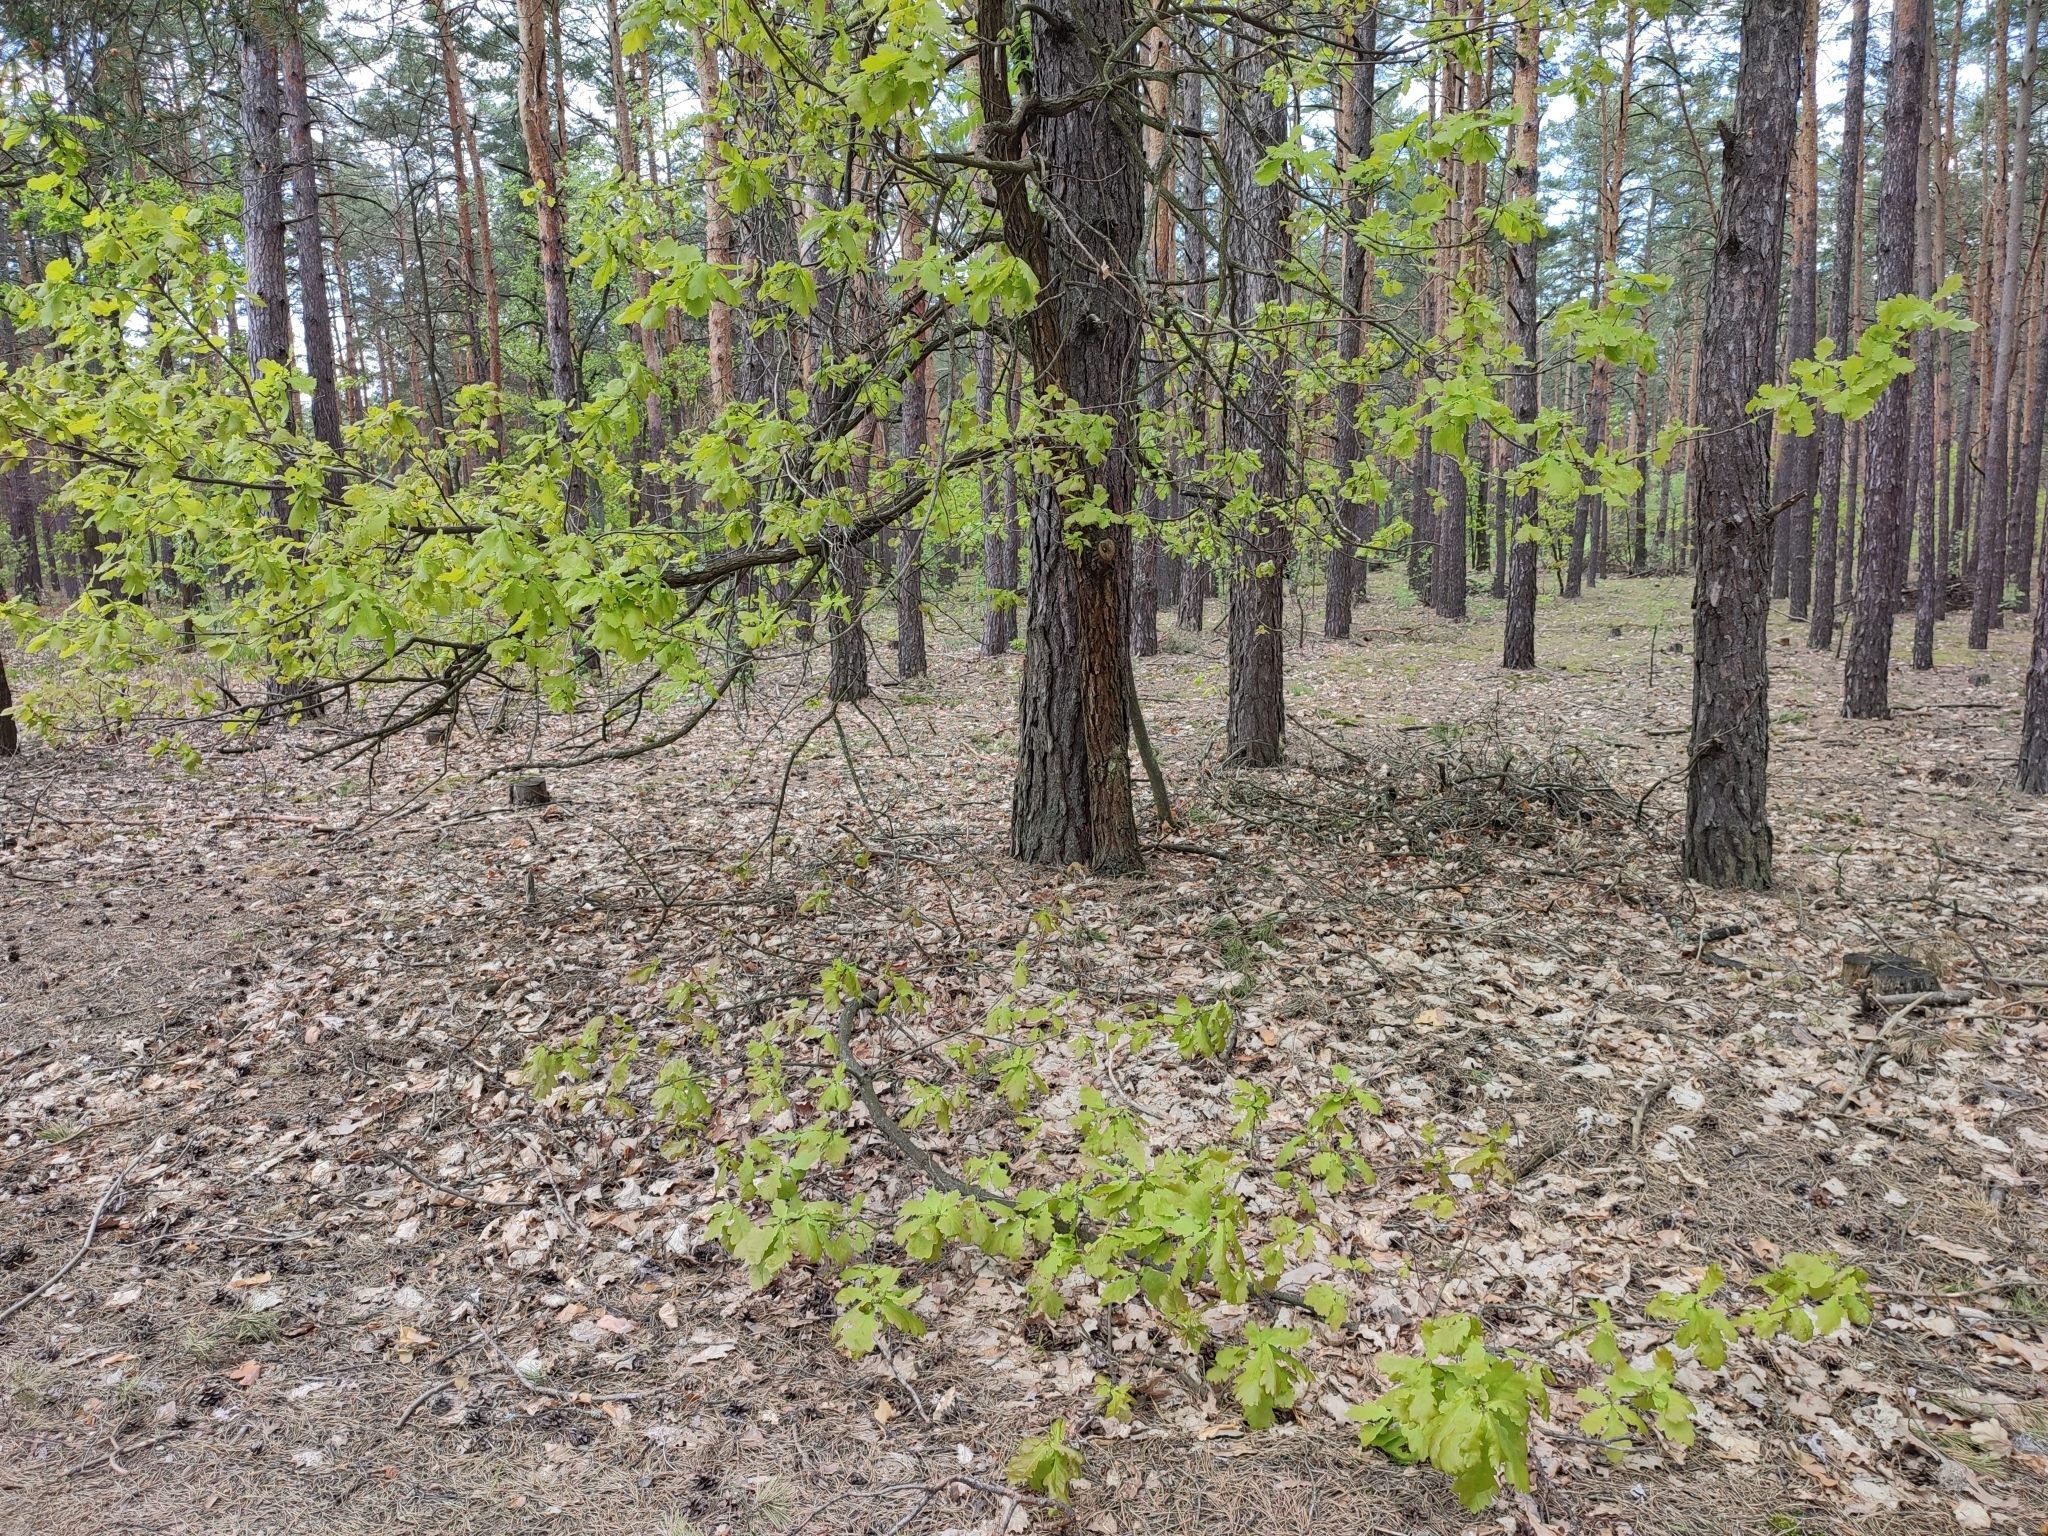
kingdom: Plantae
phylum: Tracheophyta
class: Magnoliopsida
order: Fagales
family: Fagaceae
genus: Quercus
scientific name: Quercus robur
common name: Pedunculate oak
